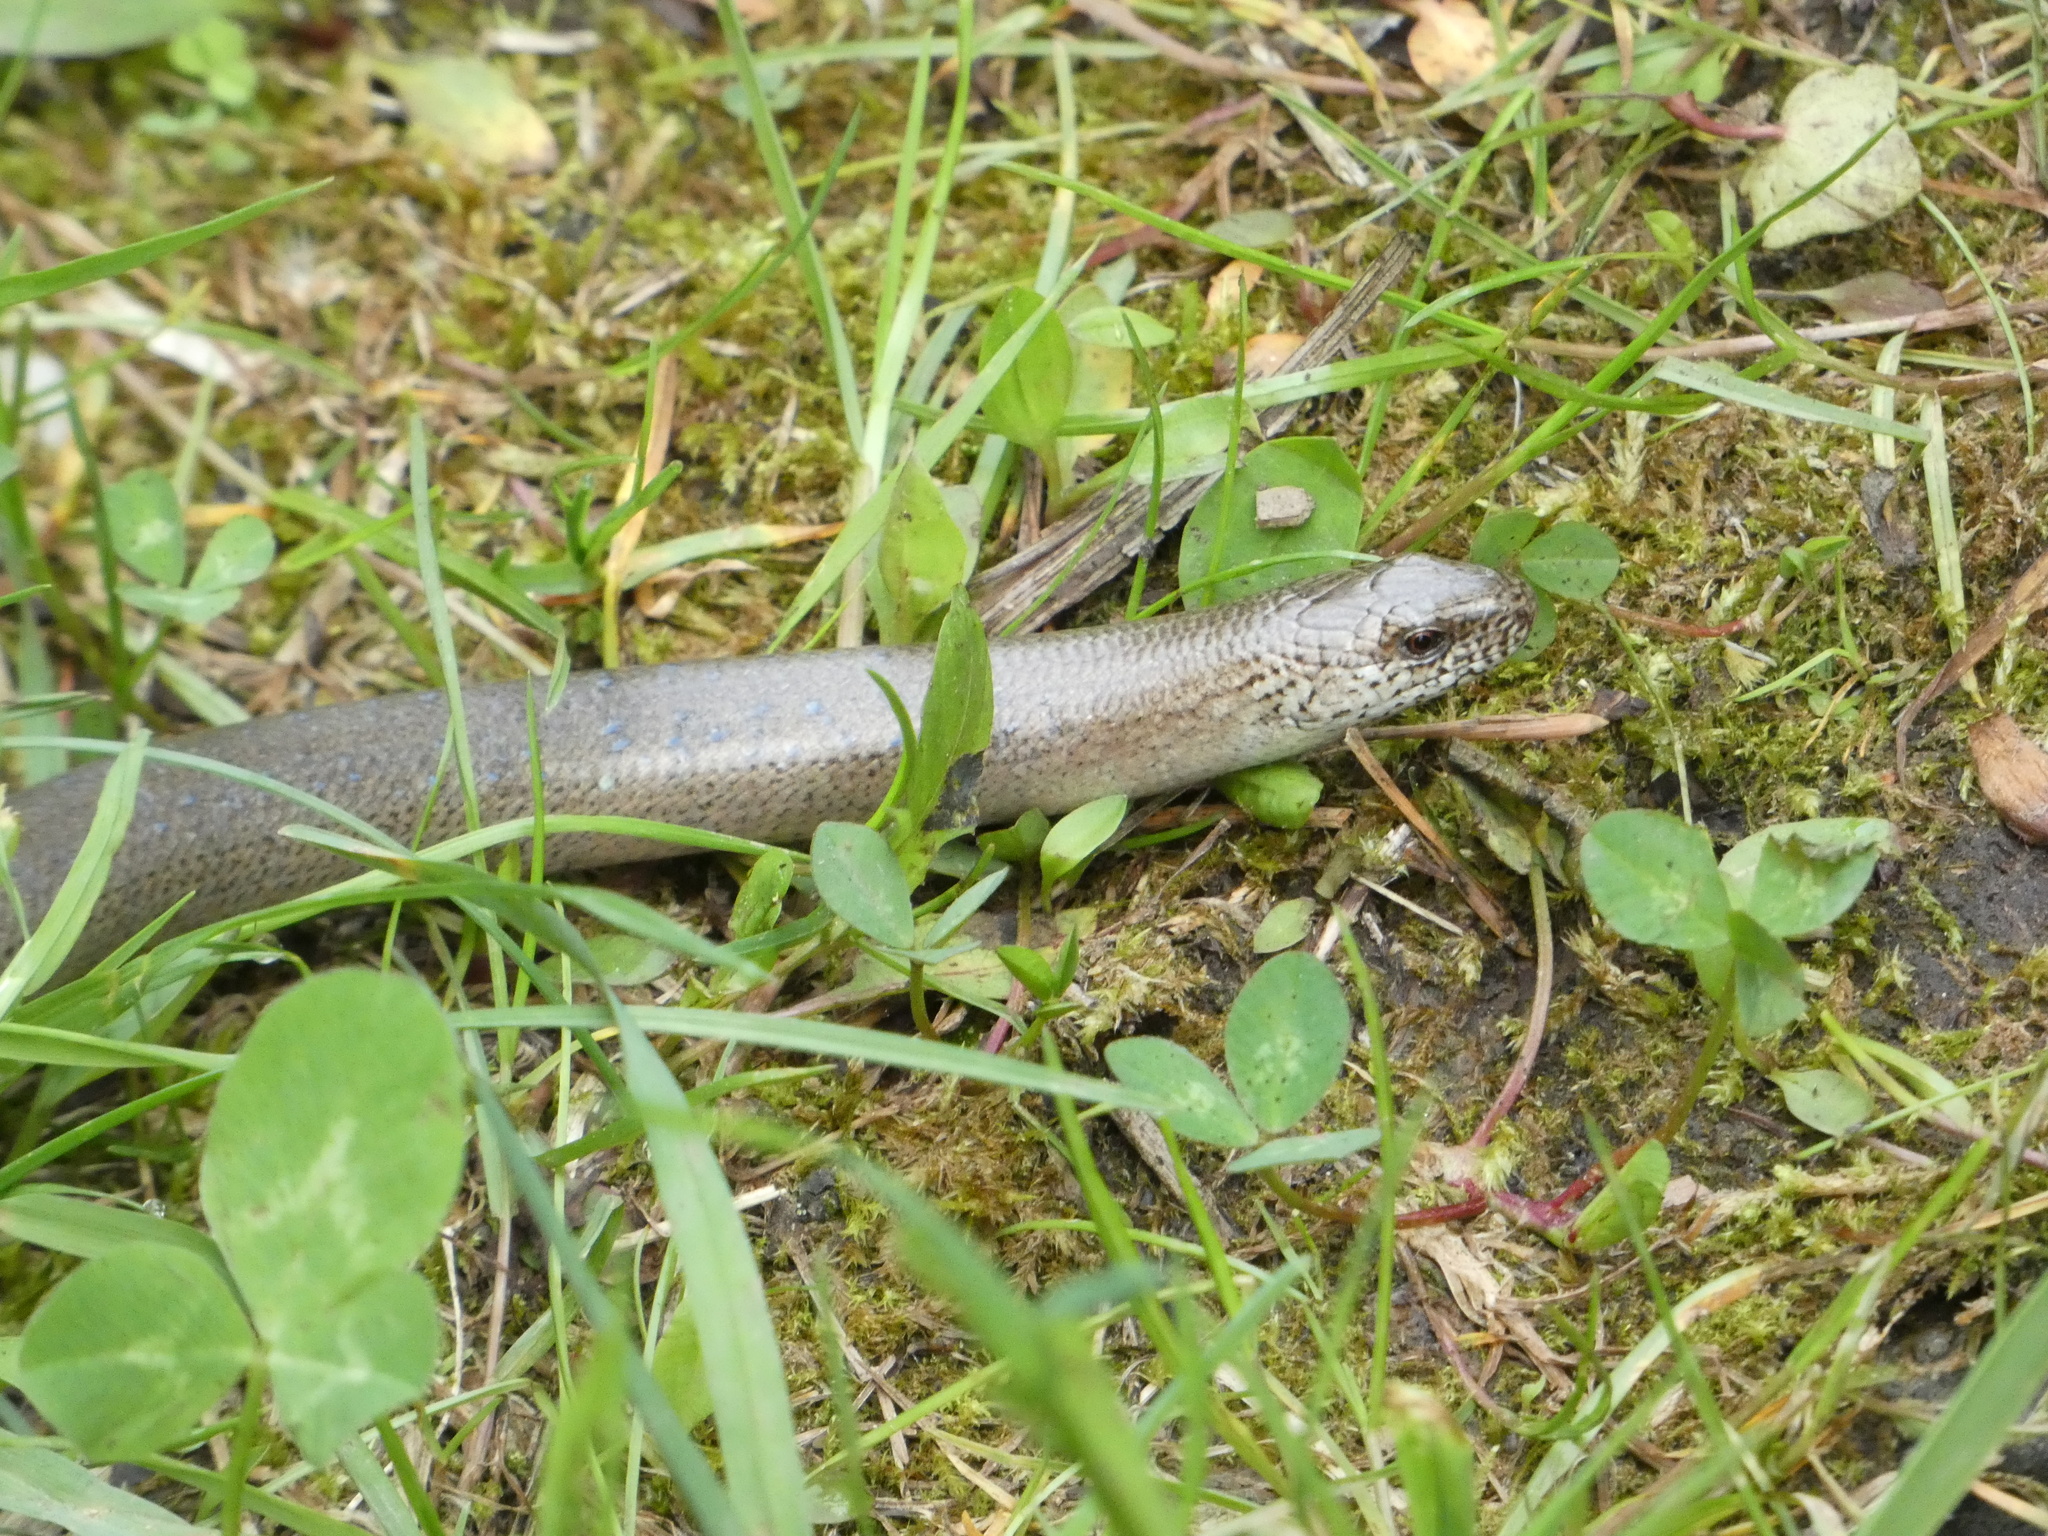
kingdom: Animalia
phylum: Chordata
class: Squamata
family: Anguidae
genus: Anguis
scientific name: Anguis fragilis
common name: Slow worm
